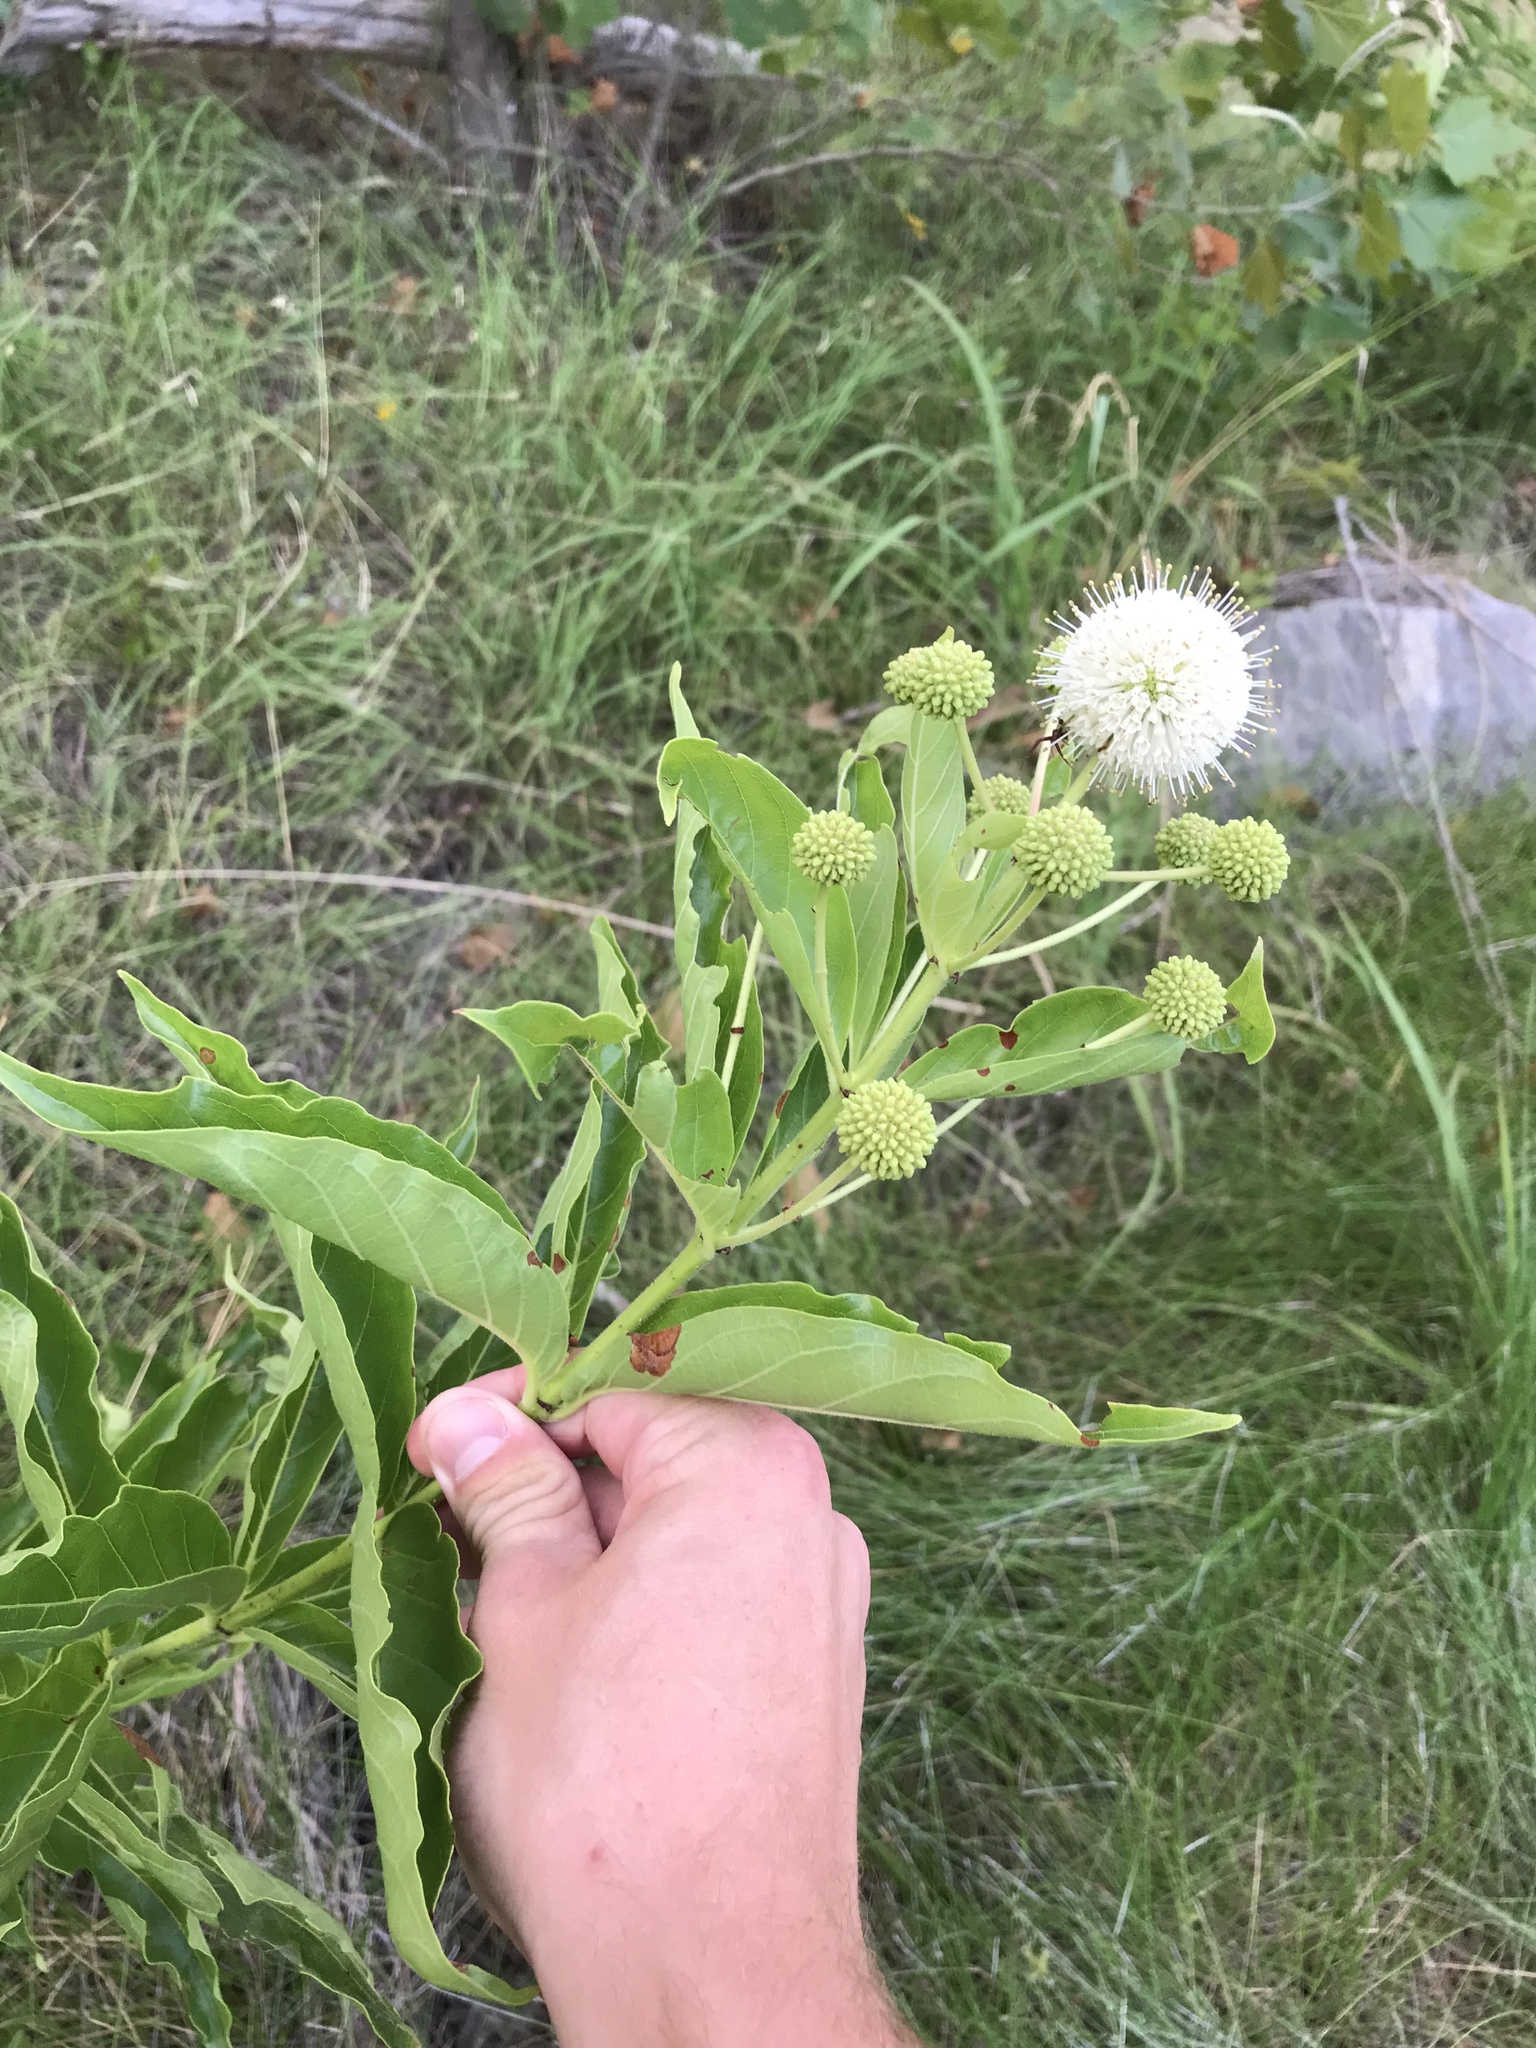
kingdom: Plantae
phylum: Tracheophyta
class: Magnoliopsida
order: Gentianales
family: Rubiaceae
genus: Cephalanthus
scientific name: Cephalanthus occidentalis
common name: Button-willow
